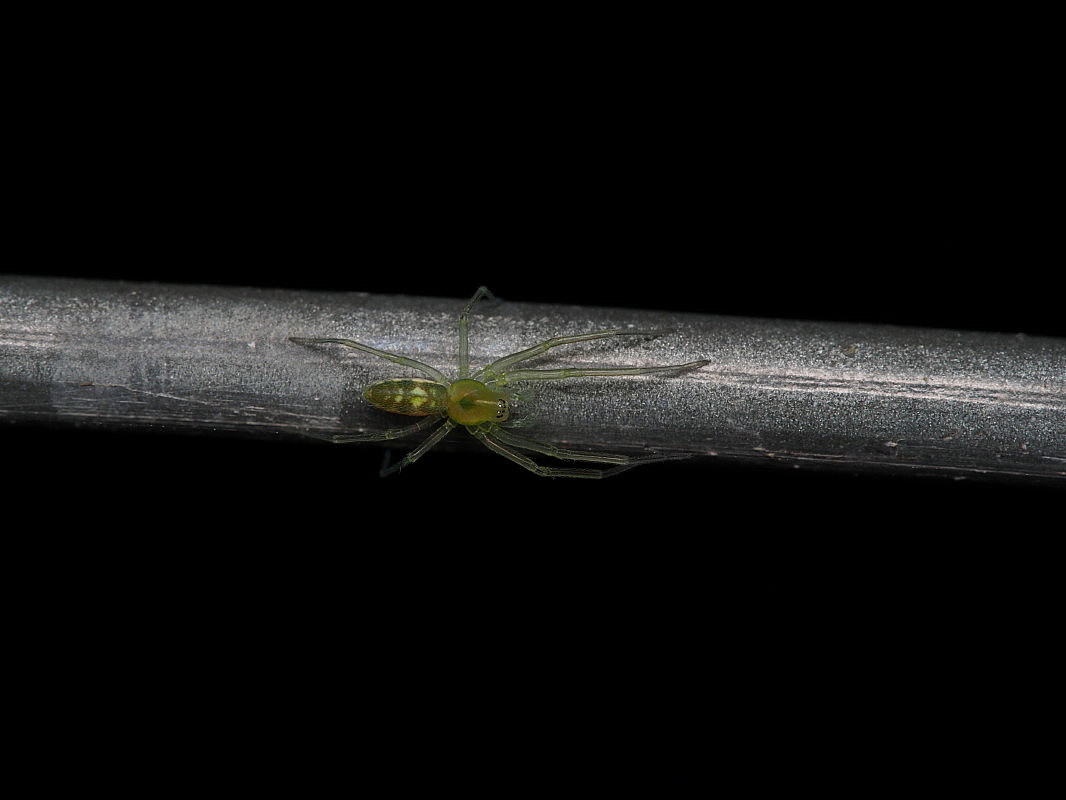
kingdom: Animalia
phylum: Arthropoda
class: Arachnida
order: Araneae
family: Dictynidae
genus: Paradictyna
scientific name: Paradictyna rufoflava
